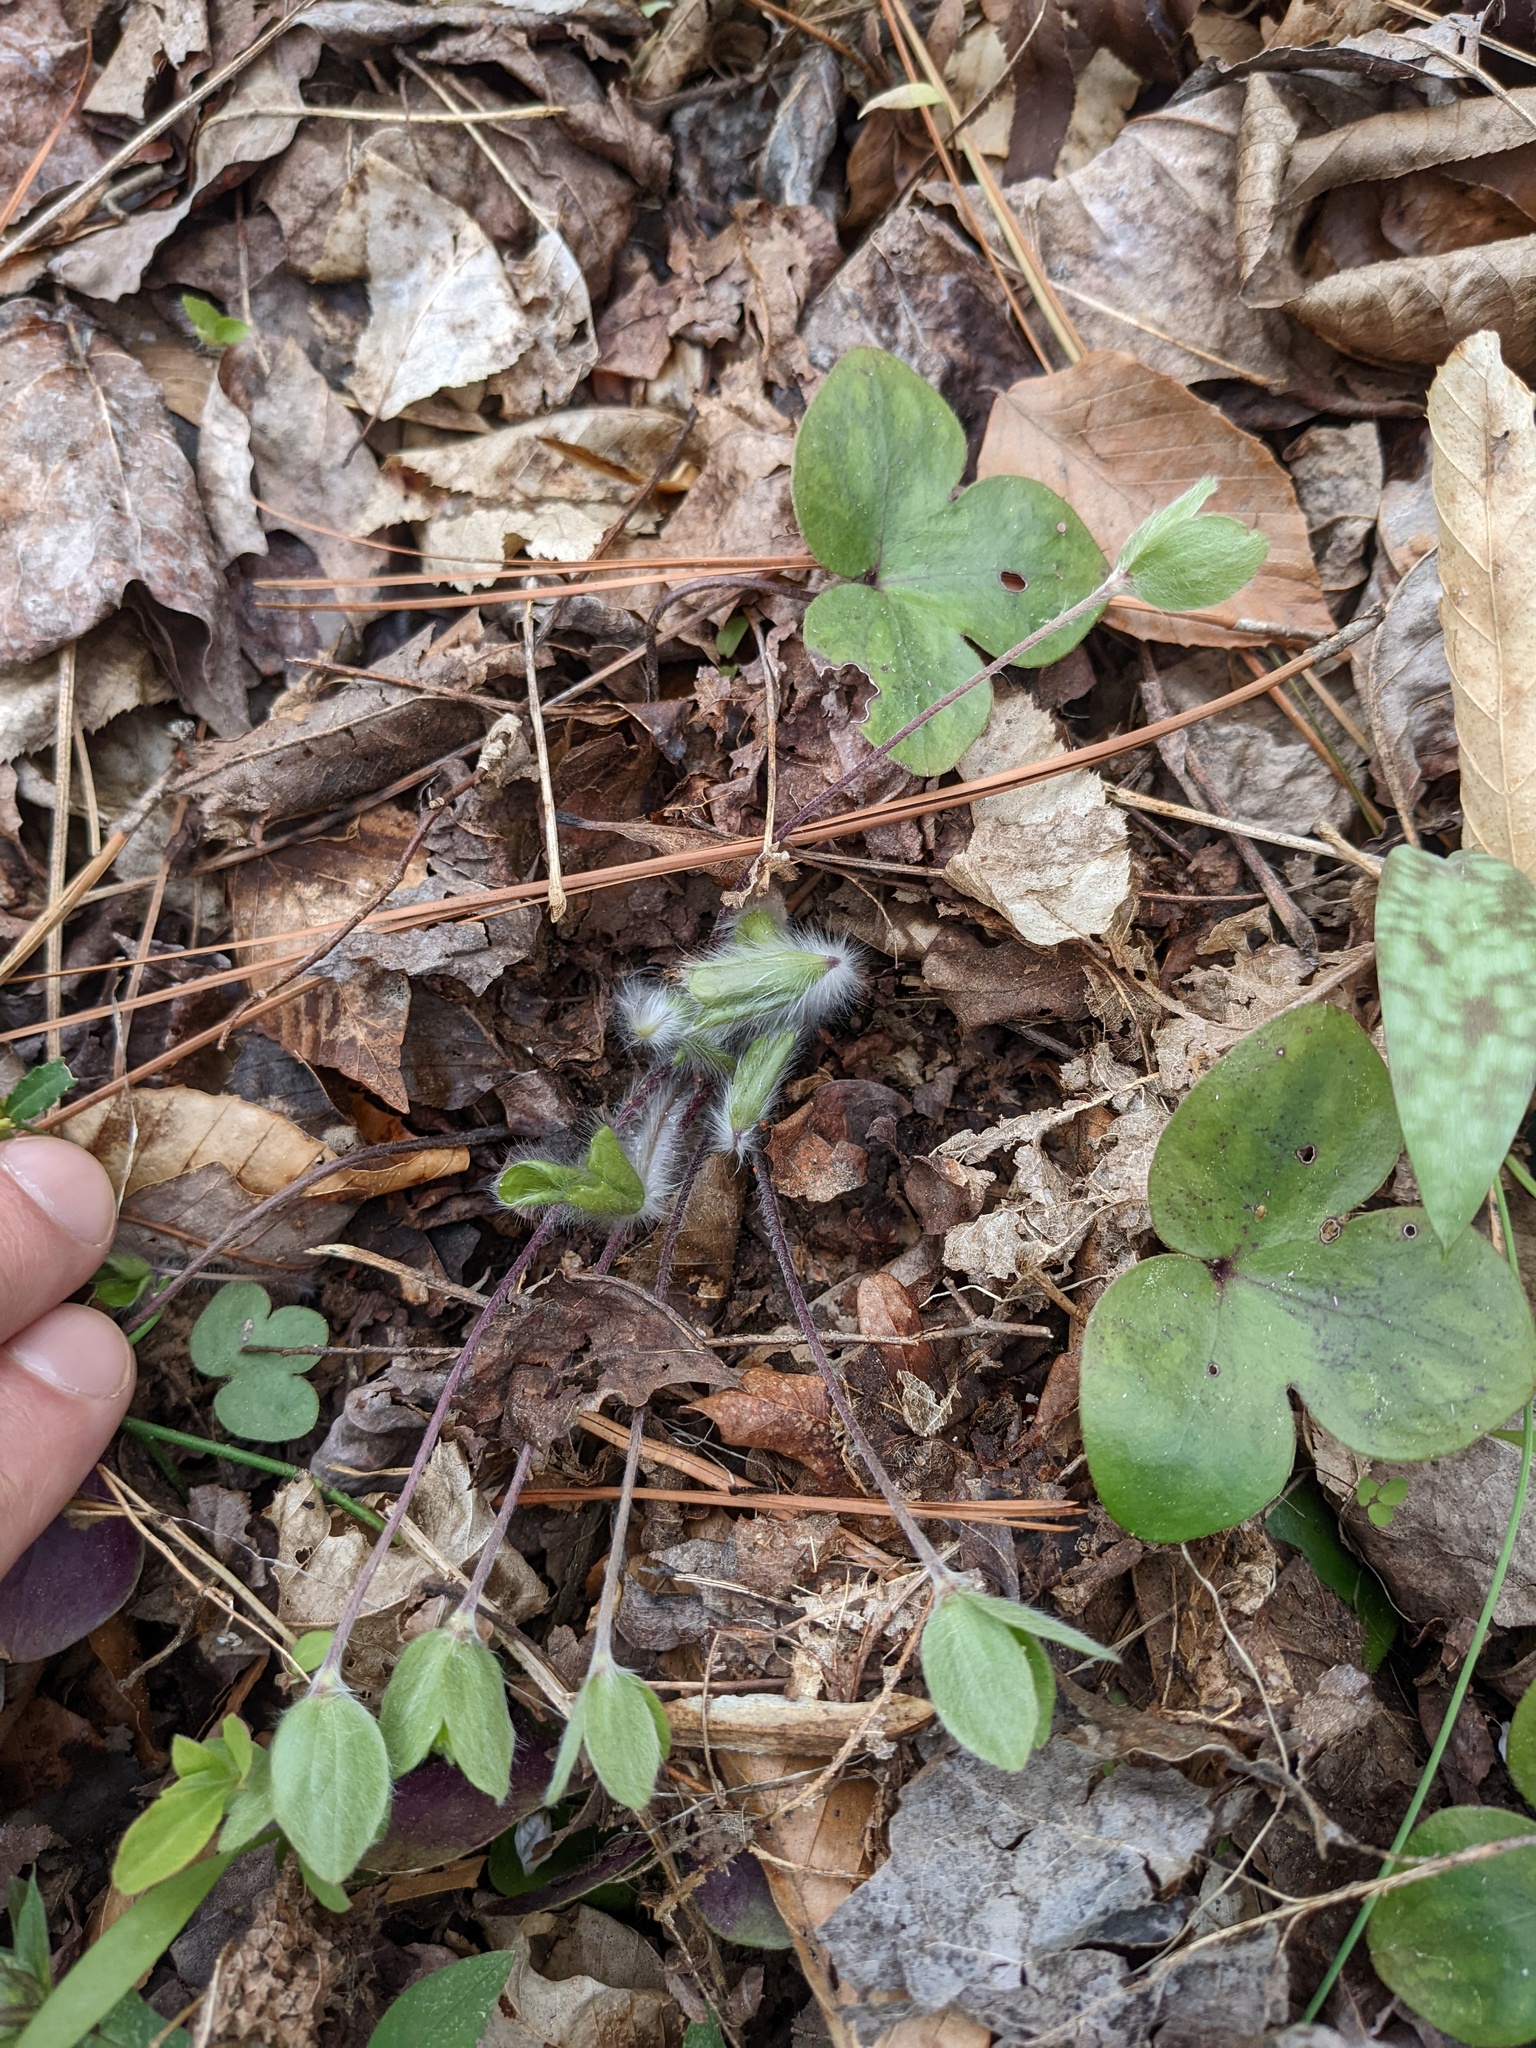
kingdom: Plantae
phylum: Tracheophyta
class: Magnoliopsida
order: Ranunculales
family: Ranunculaceae
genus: Hepatica
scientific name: Hepatica americana
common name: American hepatica
